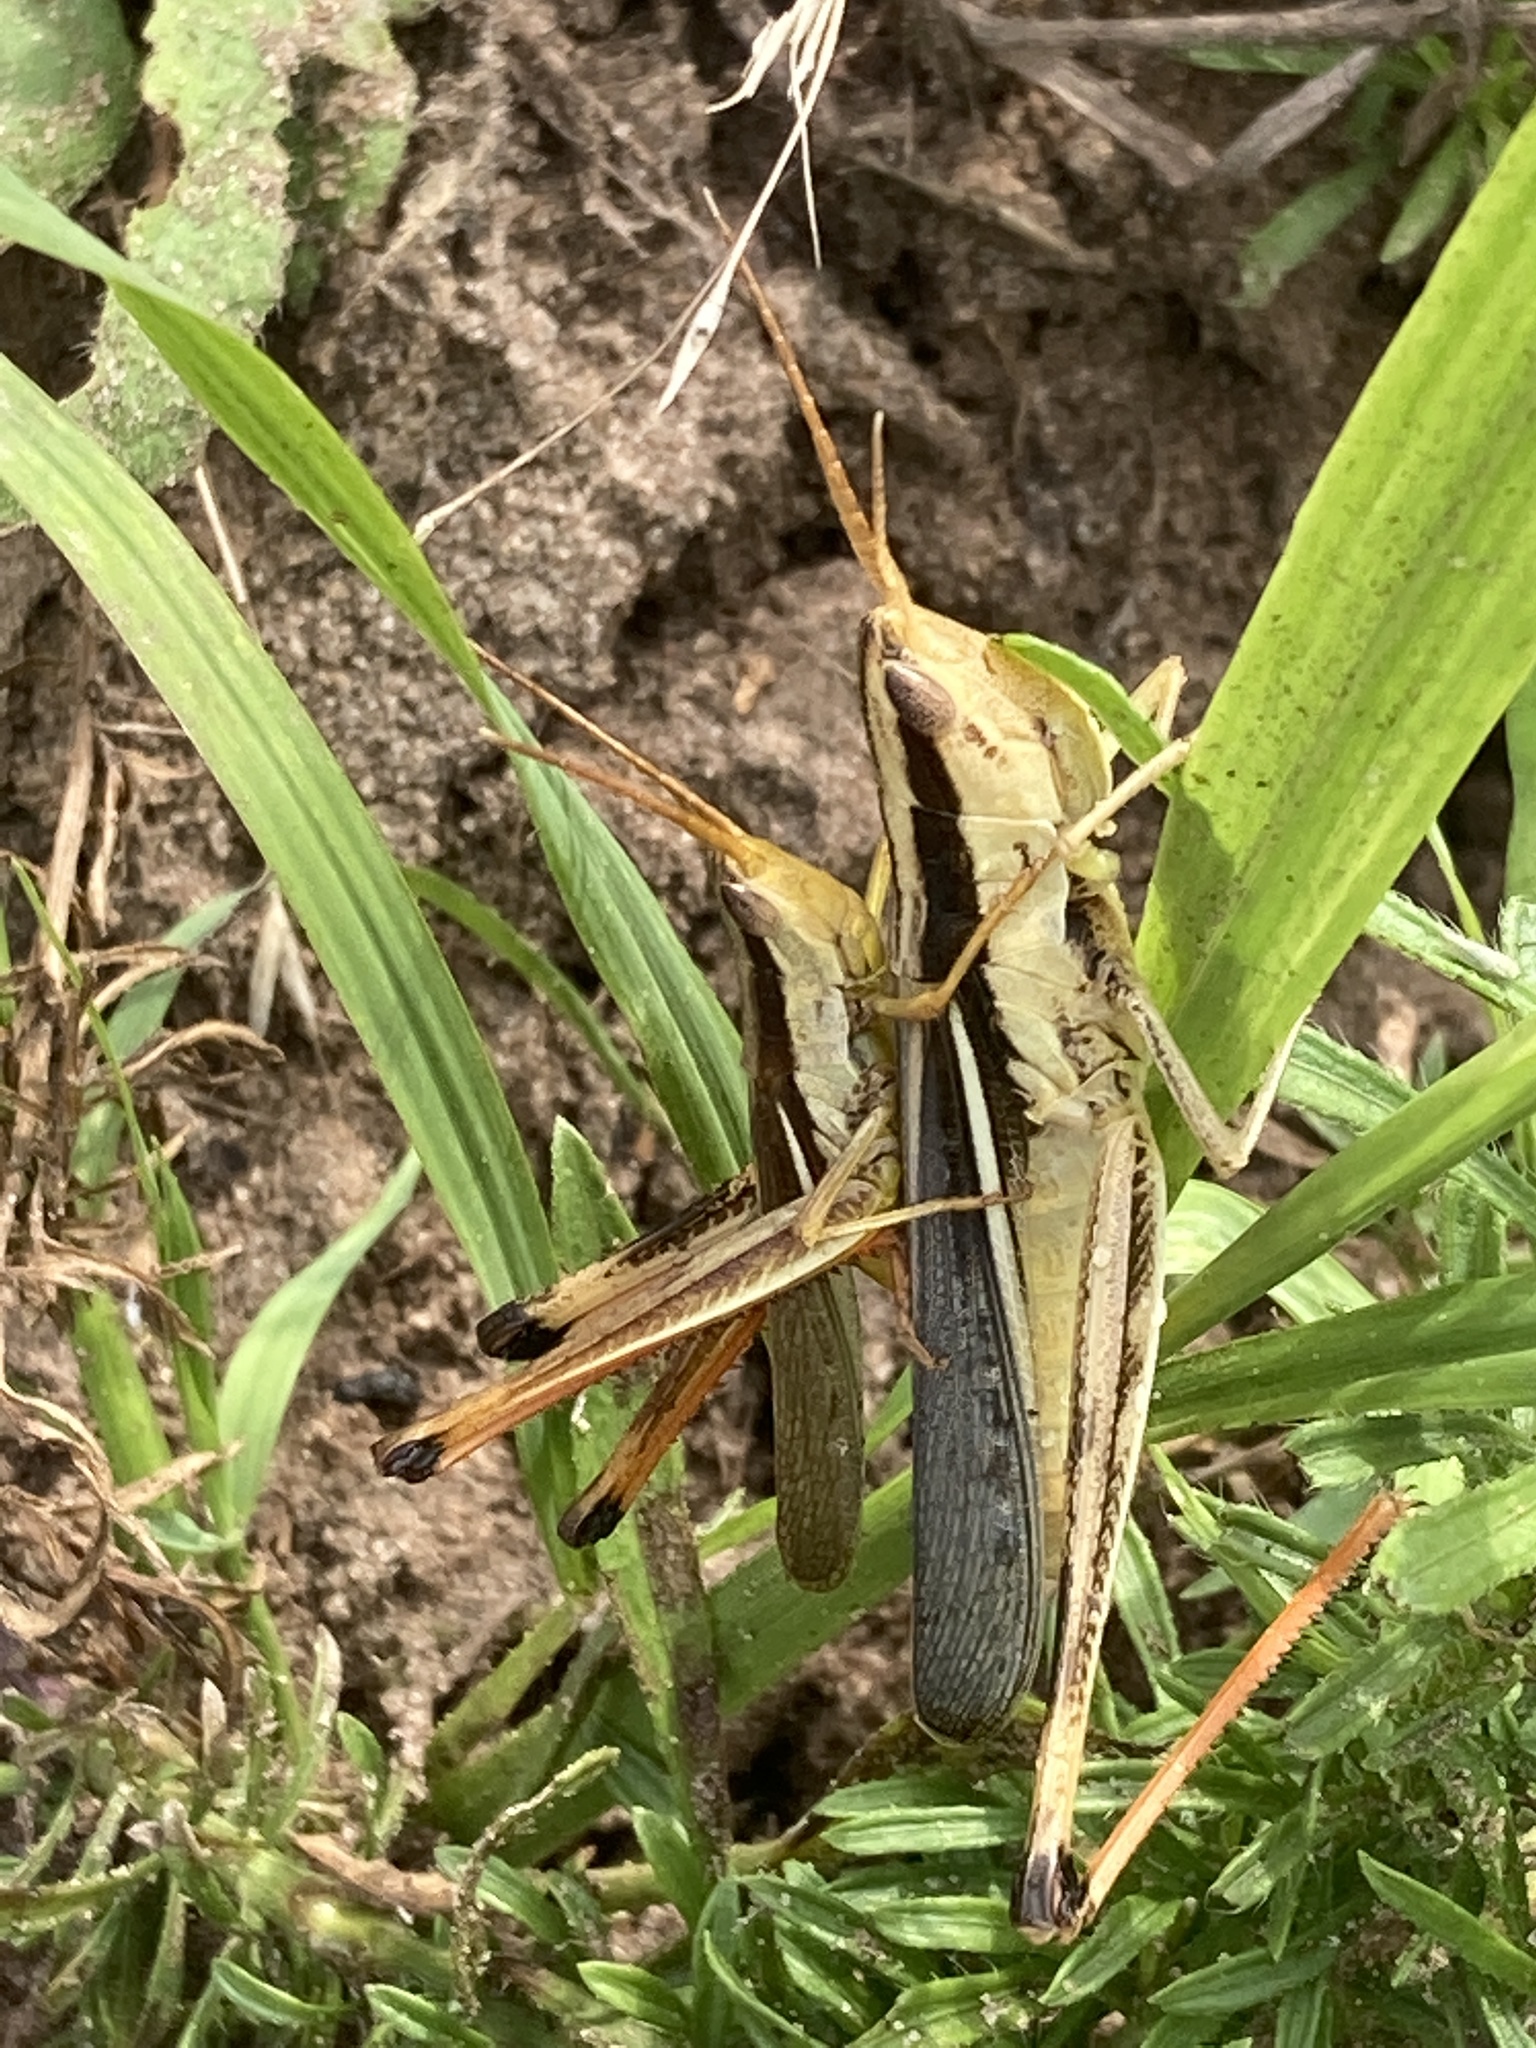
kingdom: Animalia
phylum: Arthropoda
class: Insecta
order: Orthoptera
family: Acrididae
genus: Mermiria
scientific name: Mermiria bivittata
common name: Two-striped mermiria grasshopper
